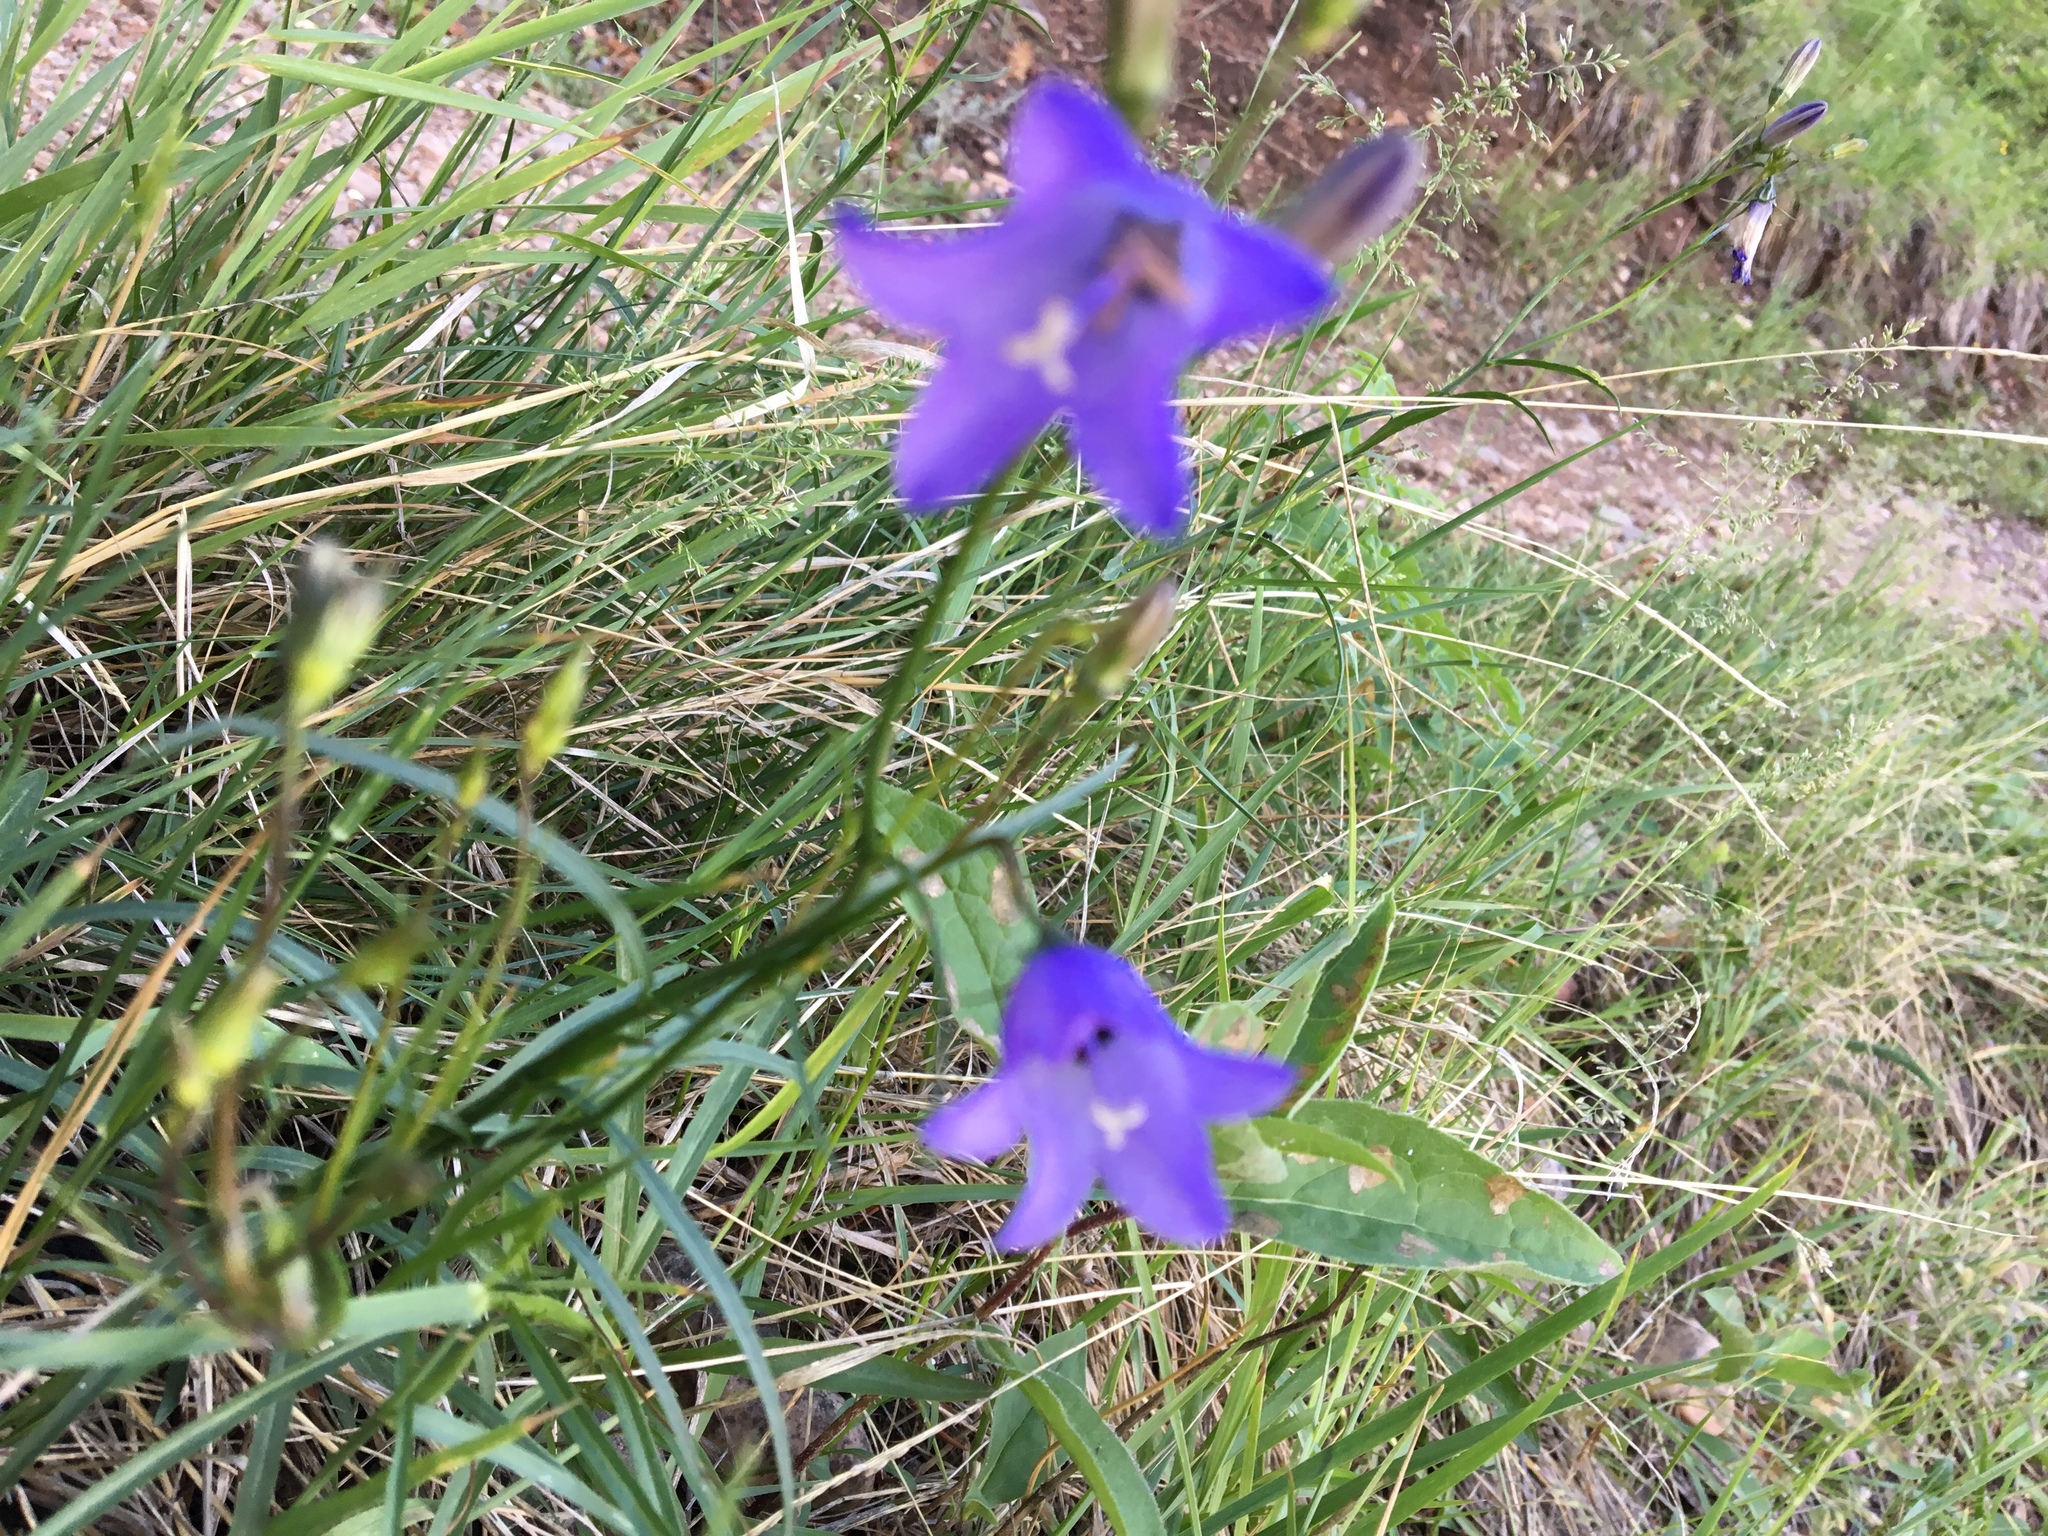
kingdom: Plantae
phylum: Tracheophyta
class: Magnoliopsida
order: Asterales
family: Campanulaceae
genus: Campanula
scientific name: Campanula alaskana
